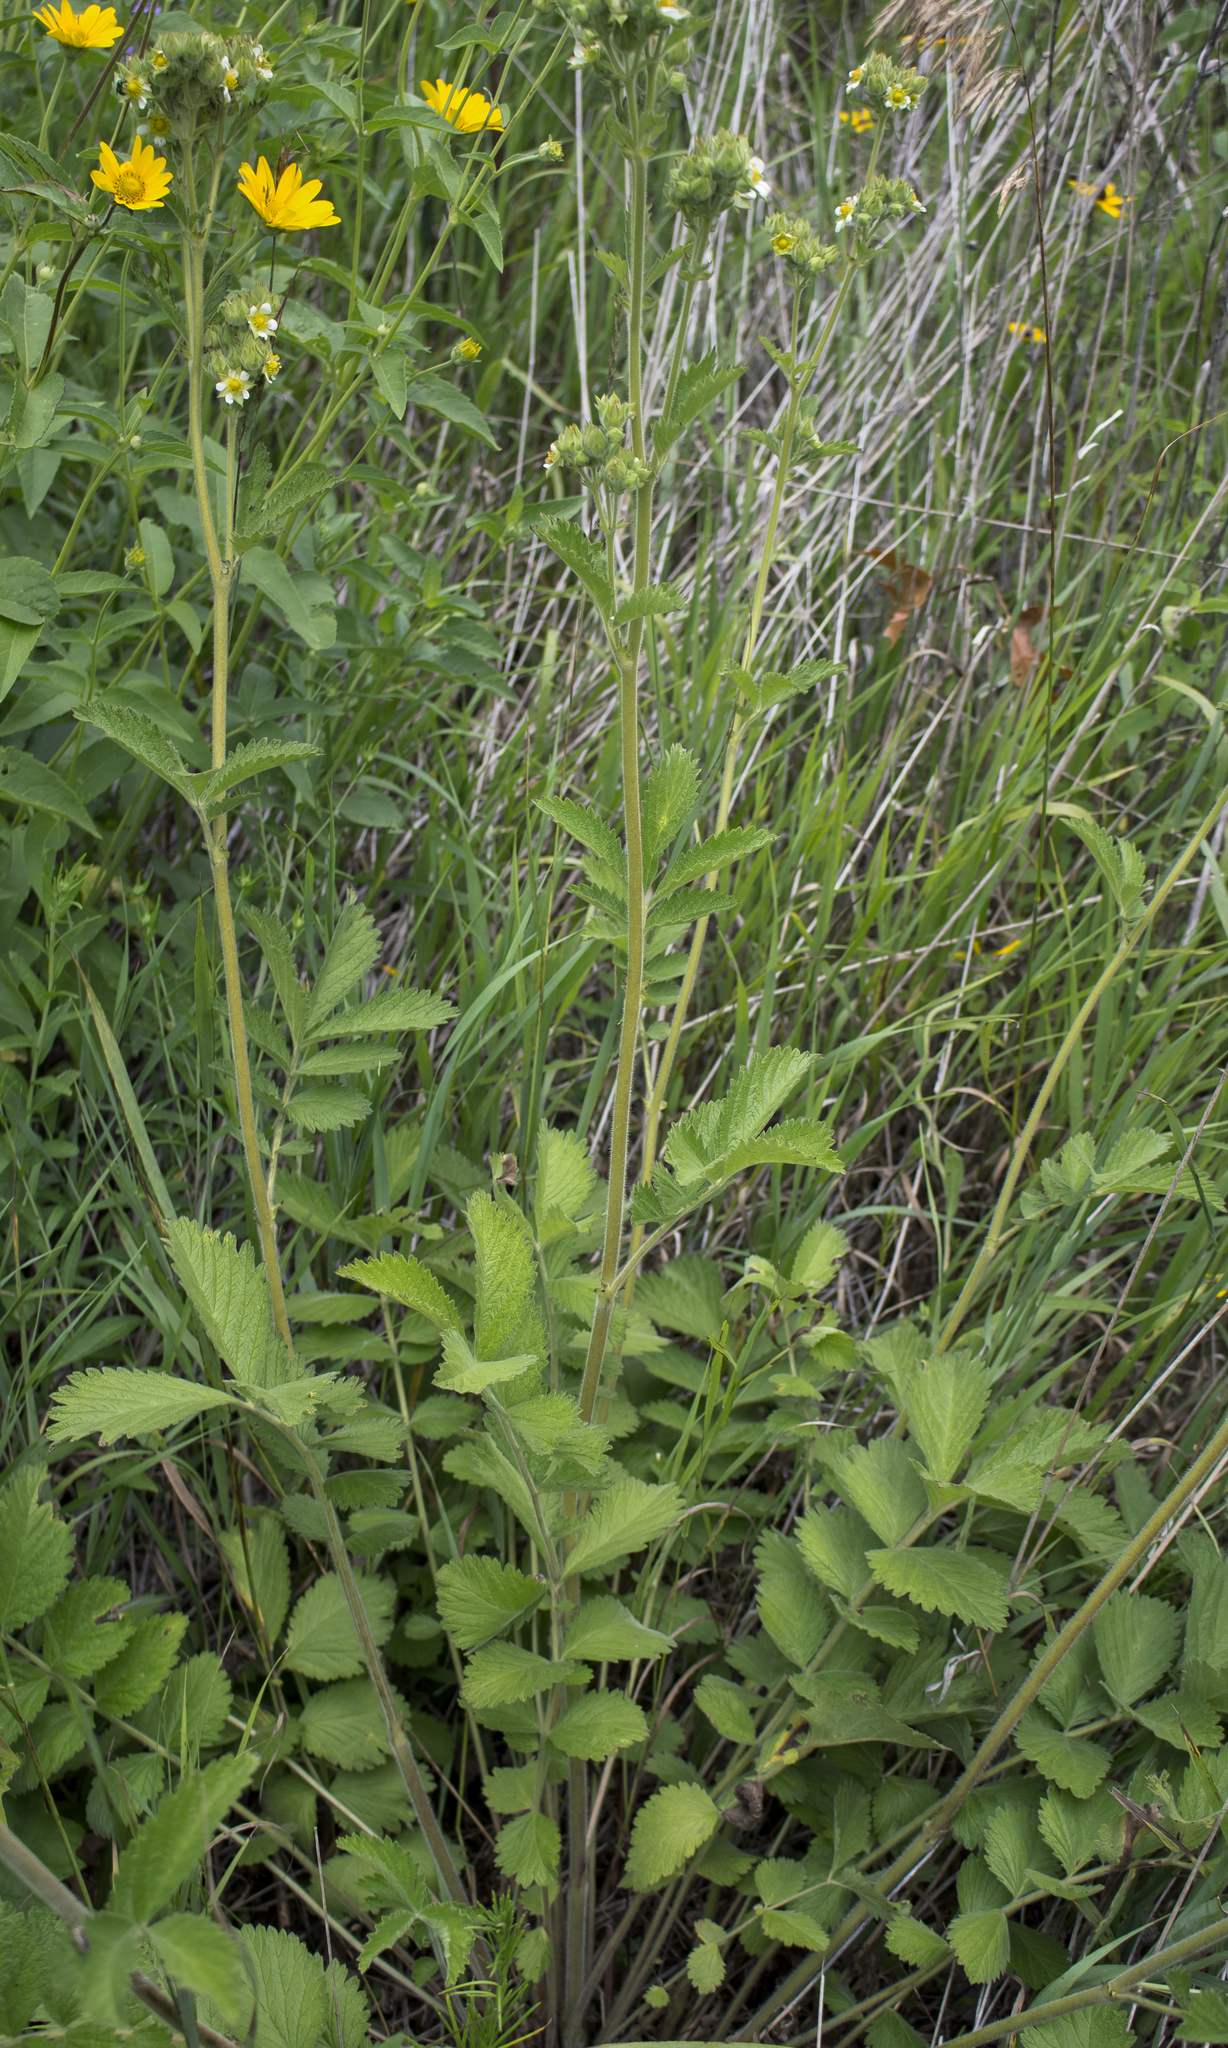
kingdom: Plantae
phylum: Tracheophyta
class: Magnoliopsida
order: Rosales
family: Rosaceae
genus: Drymocallis
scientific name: Drymocallis arguta
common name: Tall cinquefoil
